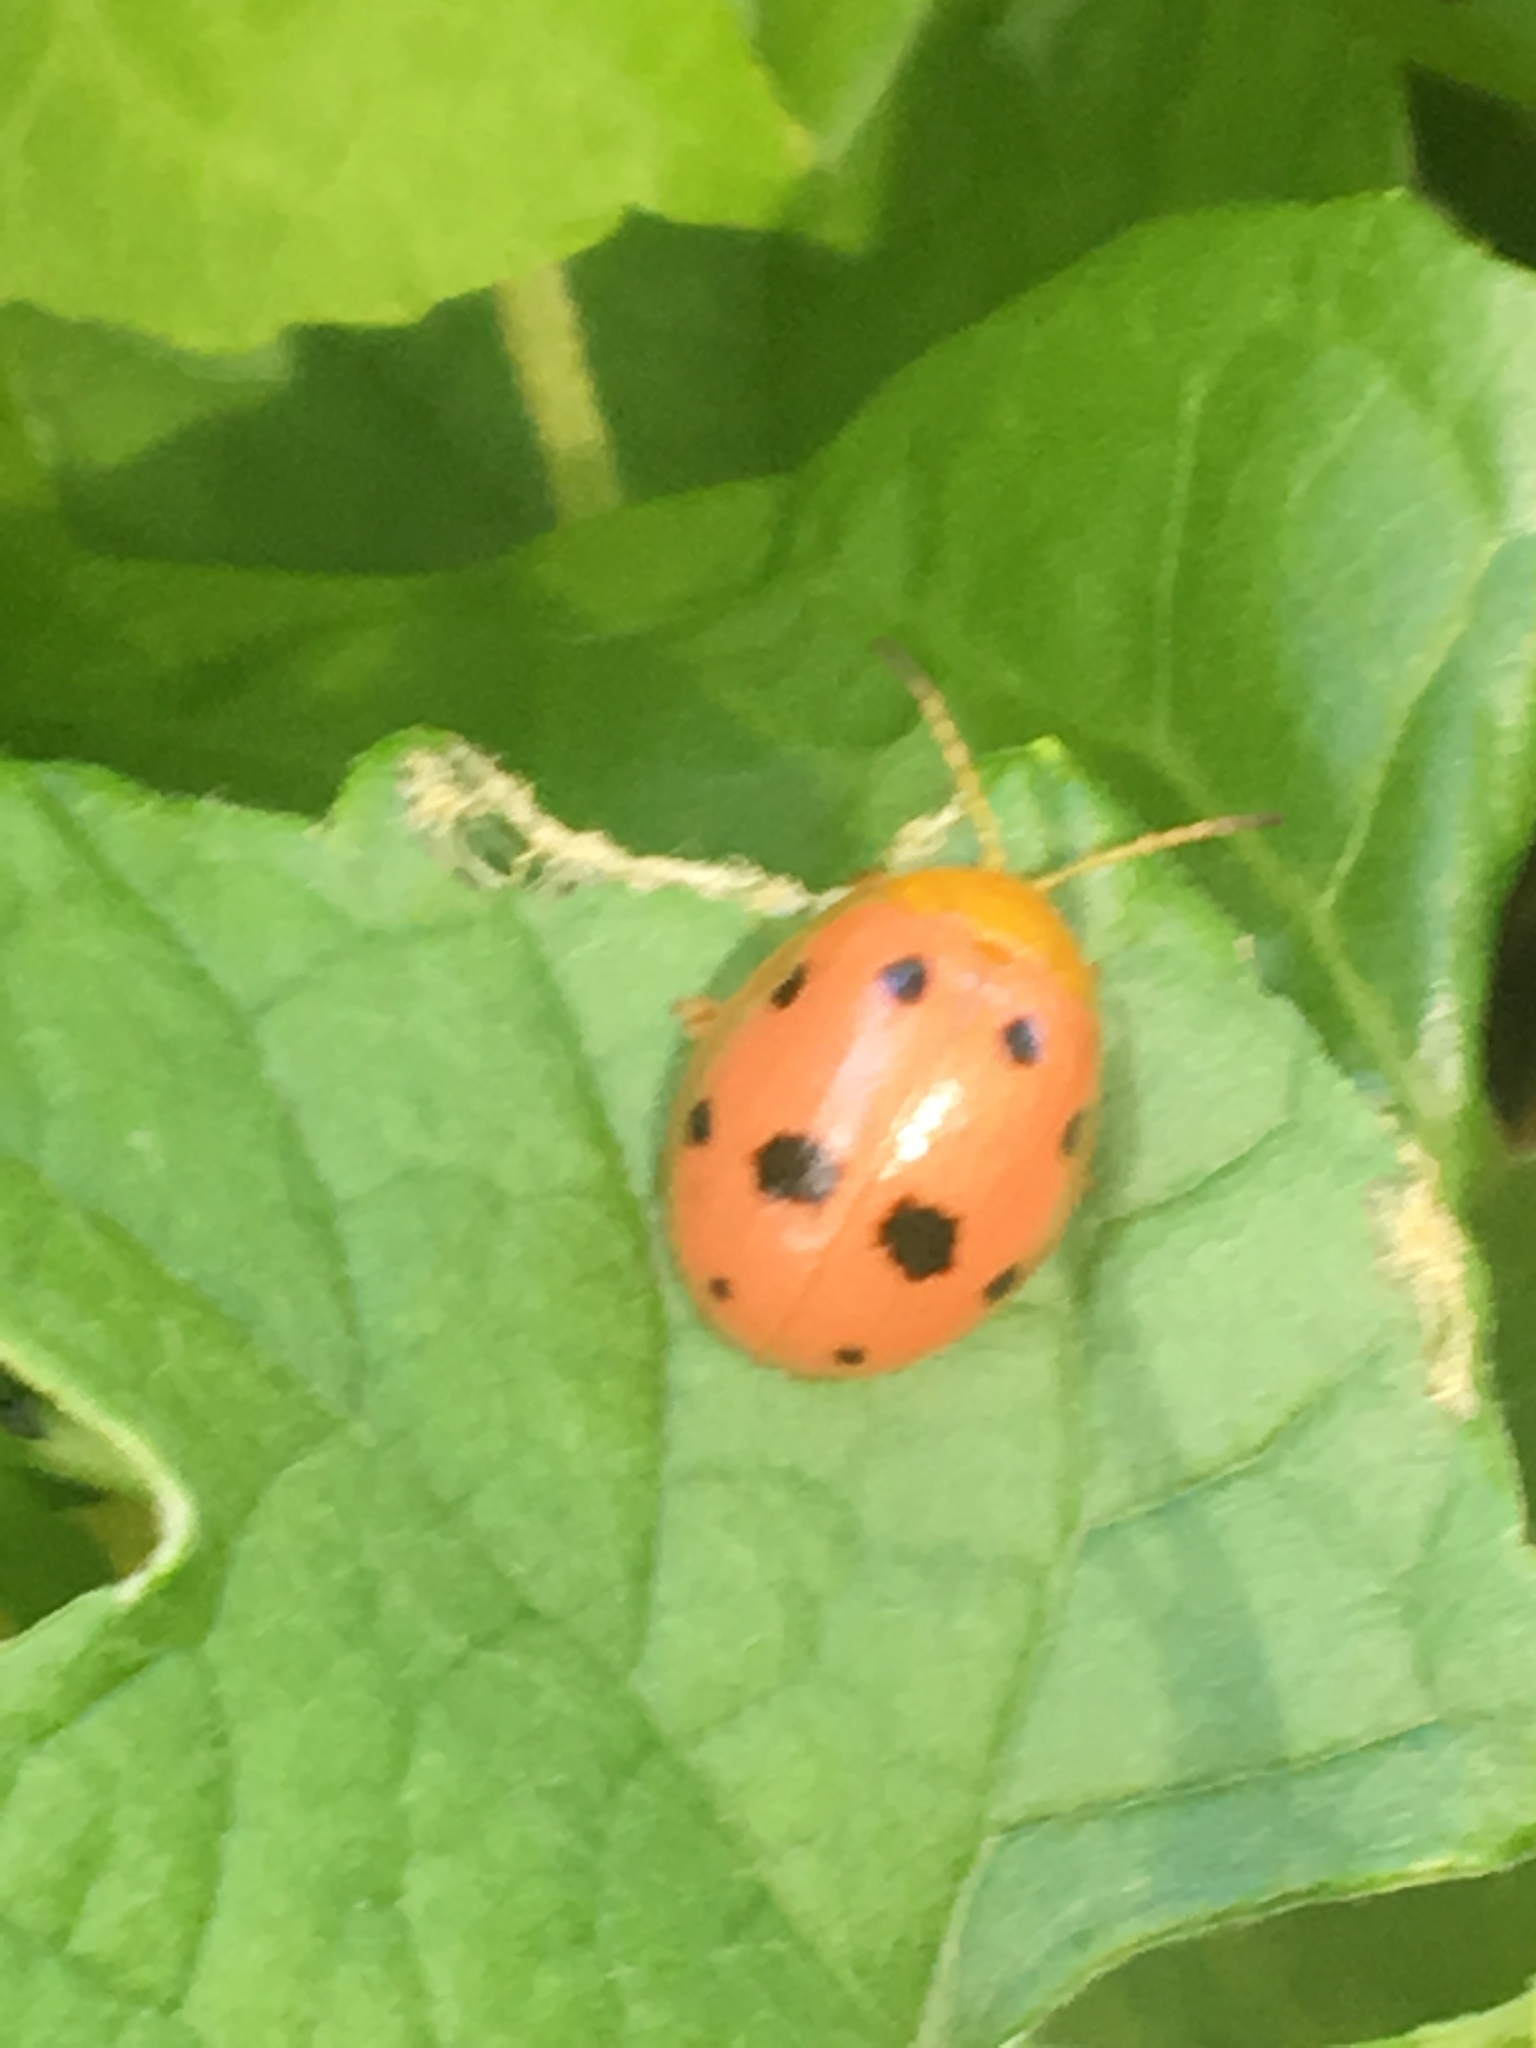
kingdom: Animalia
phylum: Arthropoda
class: Insecta
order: Coleoptera
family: Chrysomelidae
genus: Oides
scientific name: Oides decempunctata
